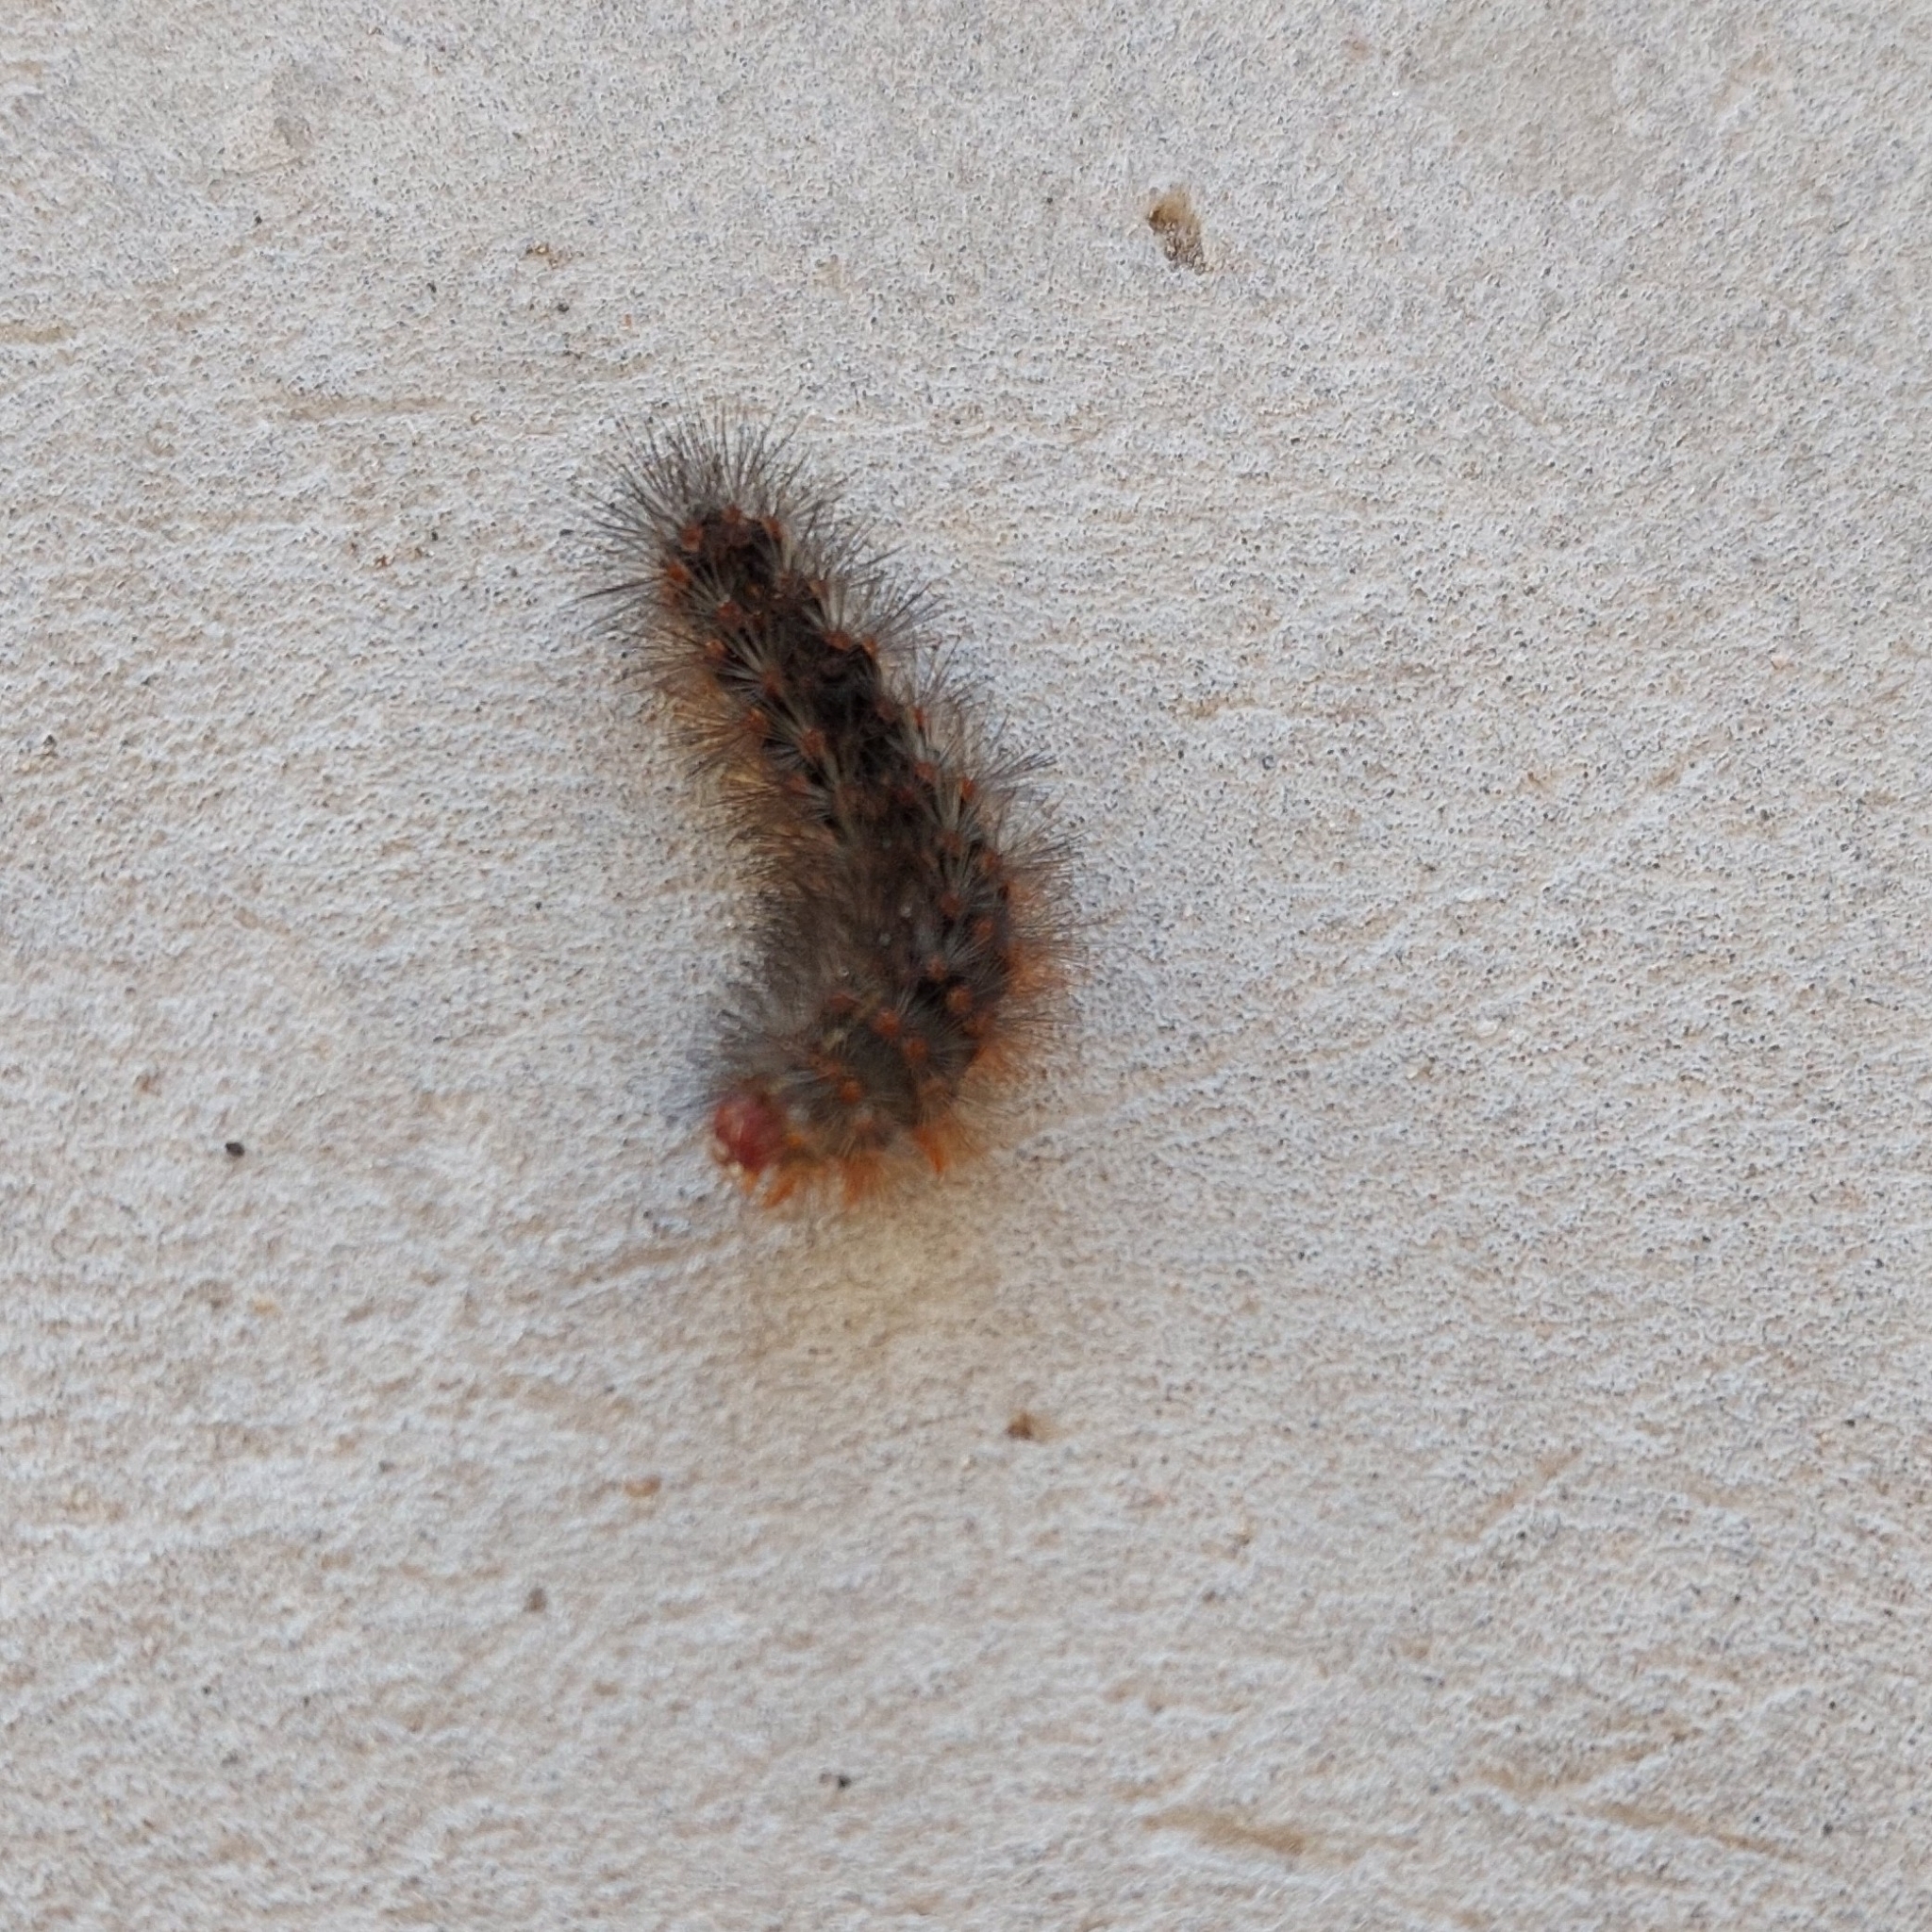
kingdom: Animalia
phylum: Arthropoda
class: Insecta
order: Lepidoptera
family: Erebidae
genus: Hypercompe
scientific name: Hypercompe indecisa
